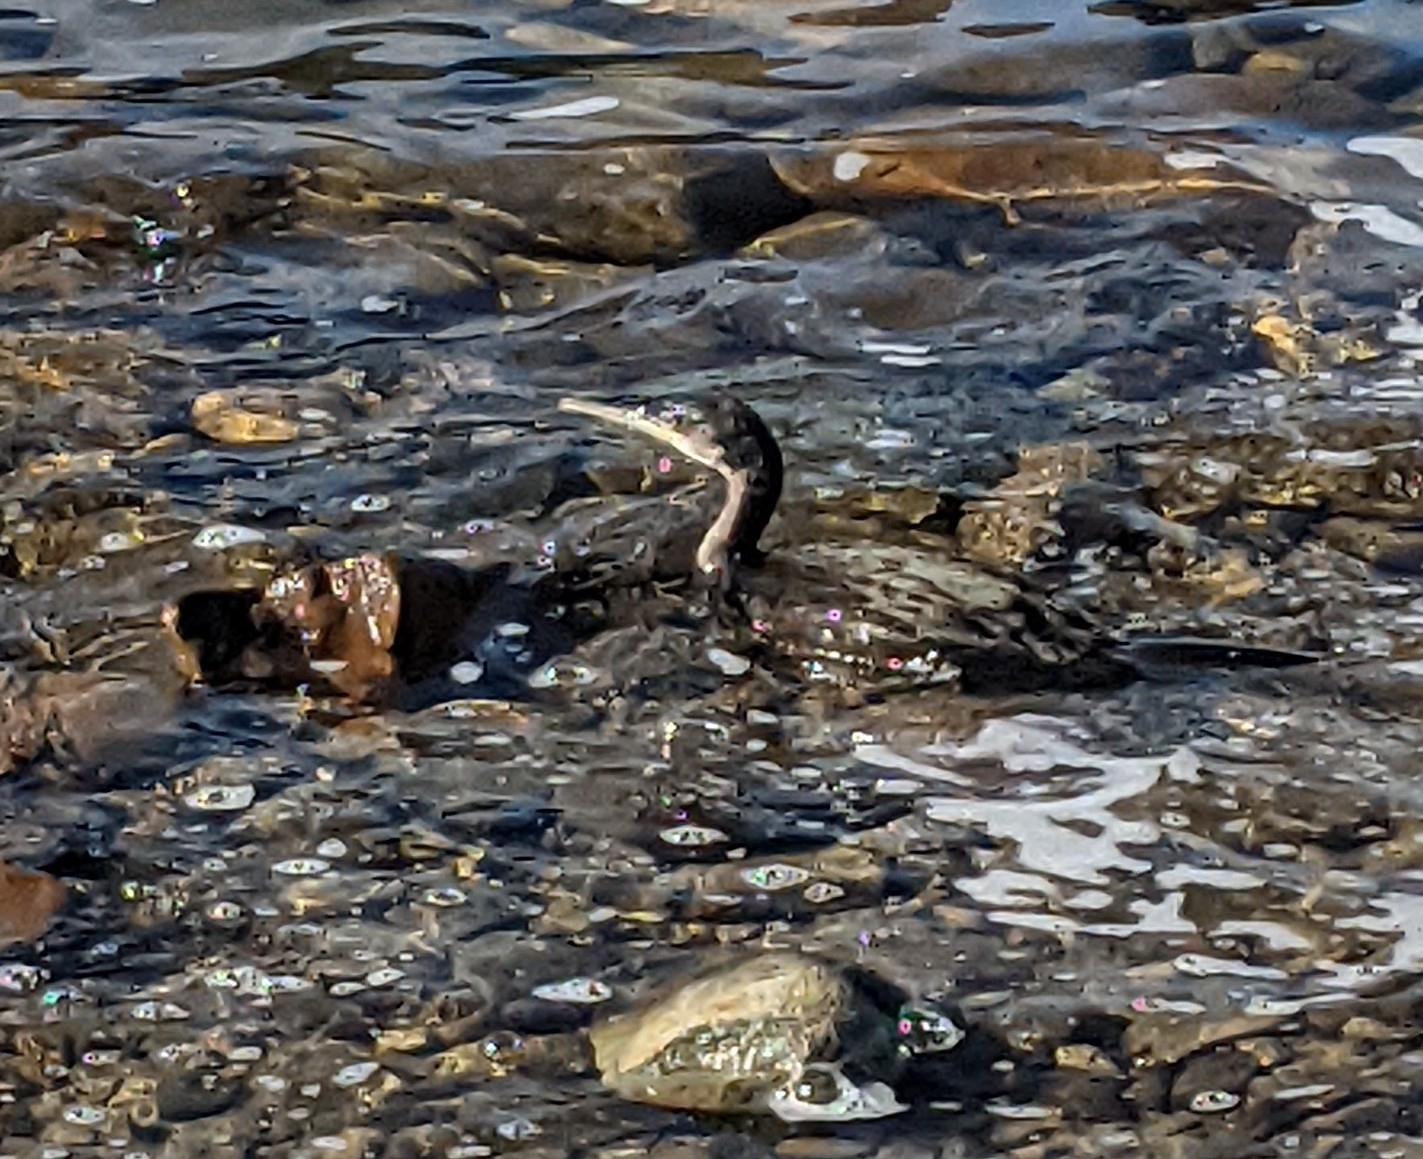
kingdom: Animalia
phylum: Chordata
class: Aves
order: Suliformes
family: Phalacrocoracidae
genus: Phalacrocorax
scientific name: Phalacrocorax aristotelis
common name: European shag
